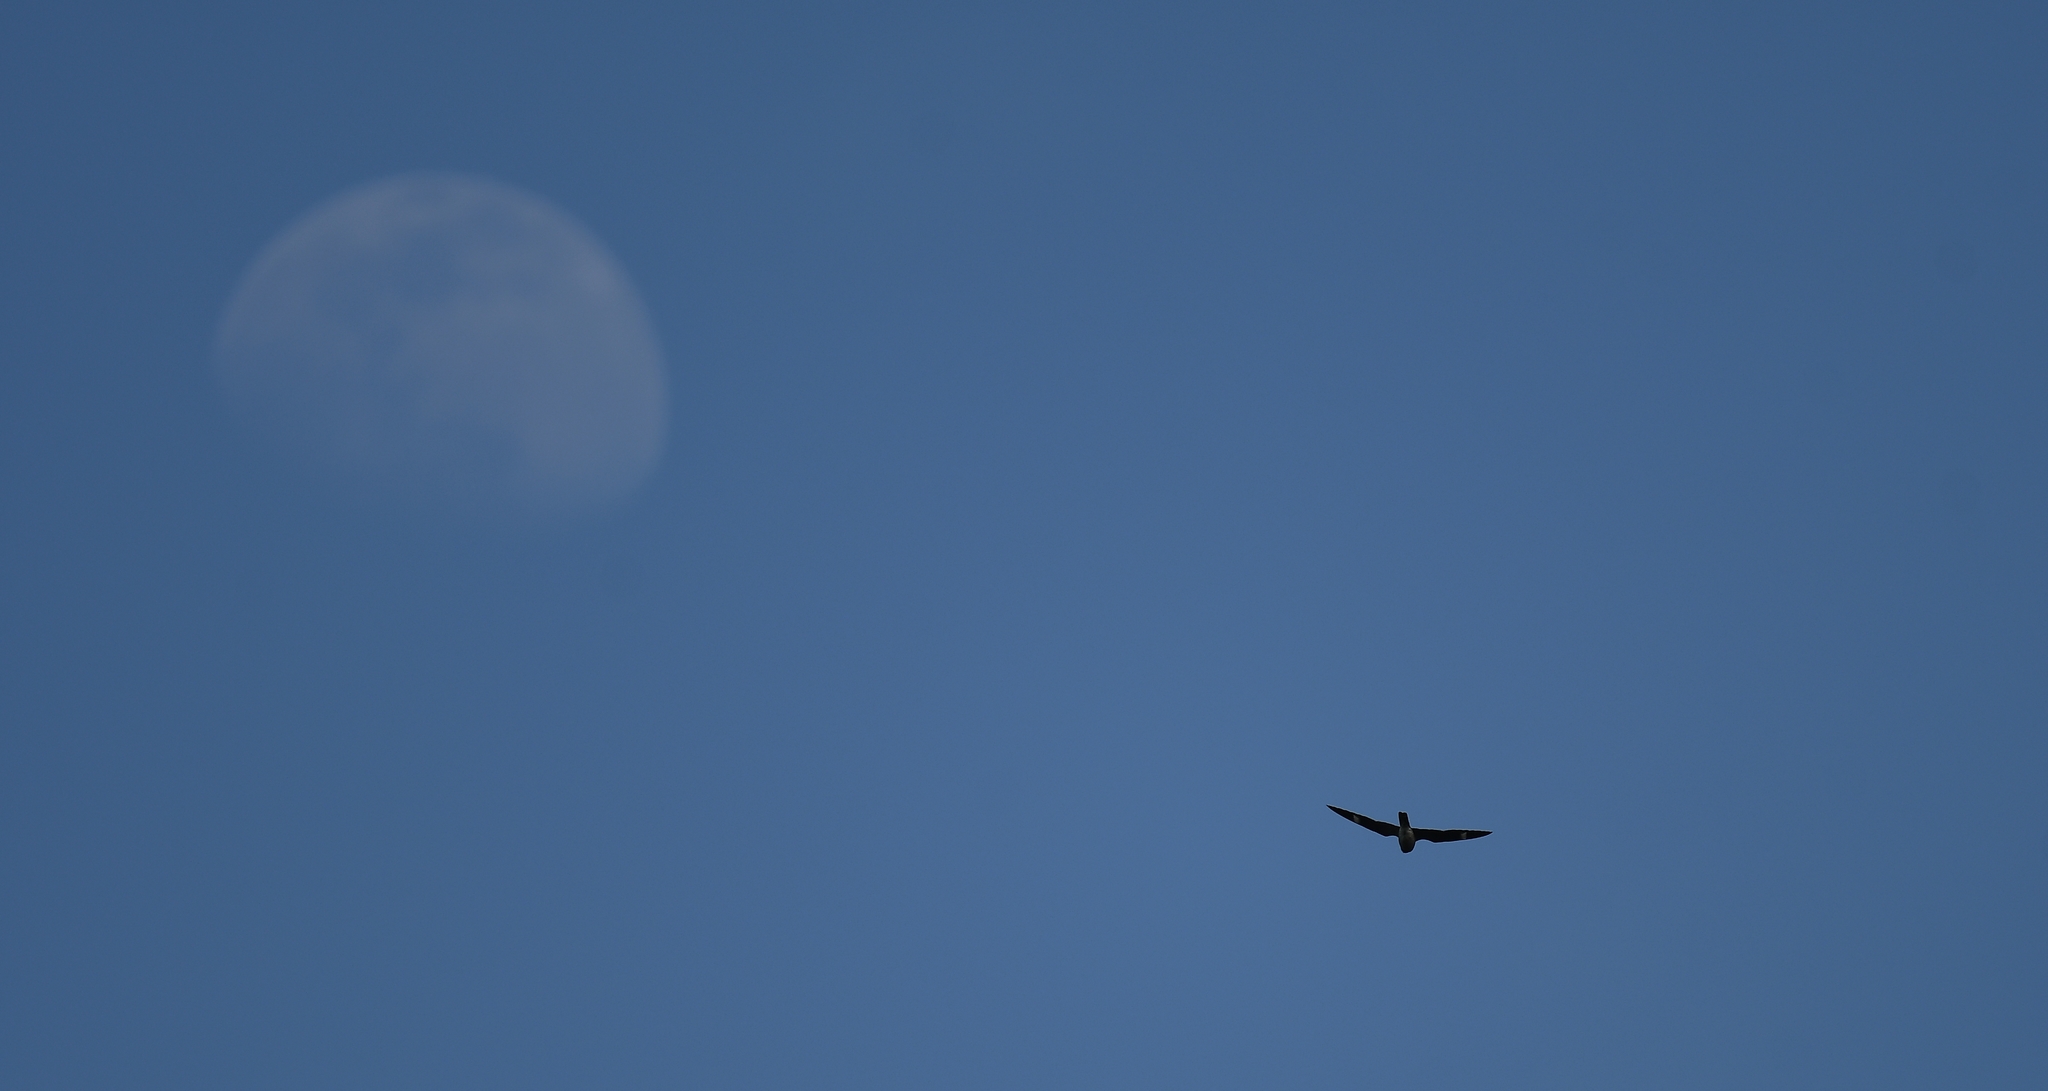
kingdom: Animalia
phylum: Chordata
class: Aves
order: Caprimulgiformes
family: Caprimulgidae
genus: Chordeiles
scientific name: Chordeiles minor
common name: Common nighthawk
